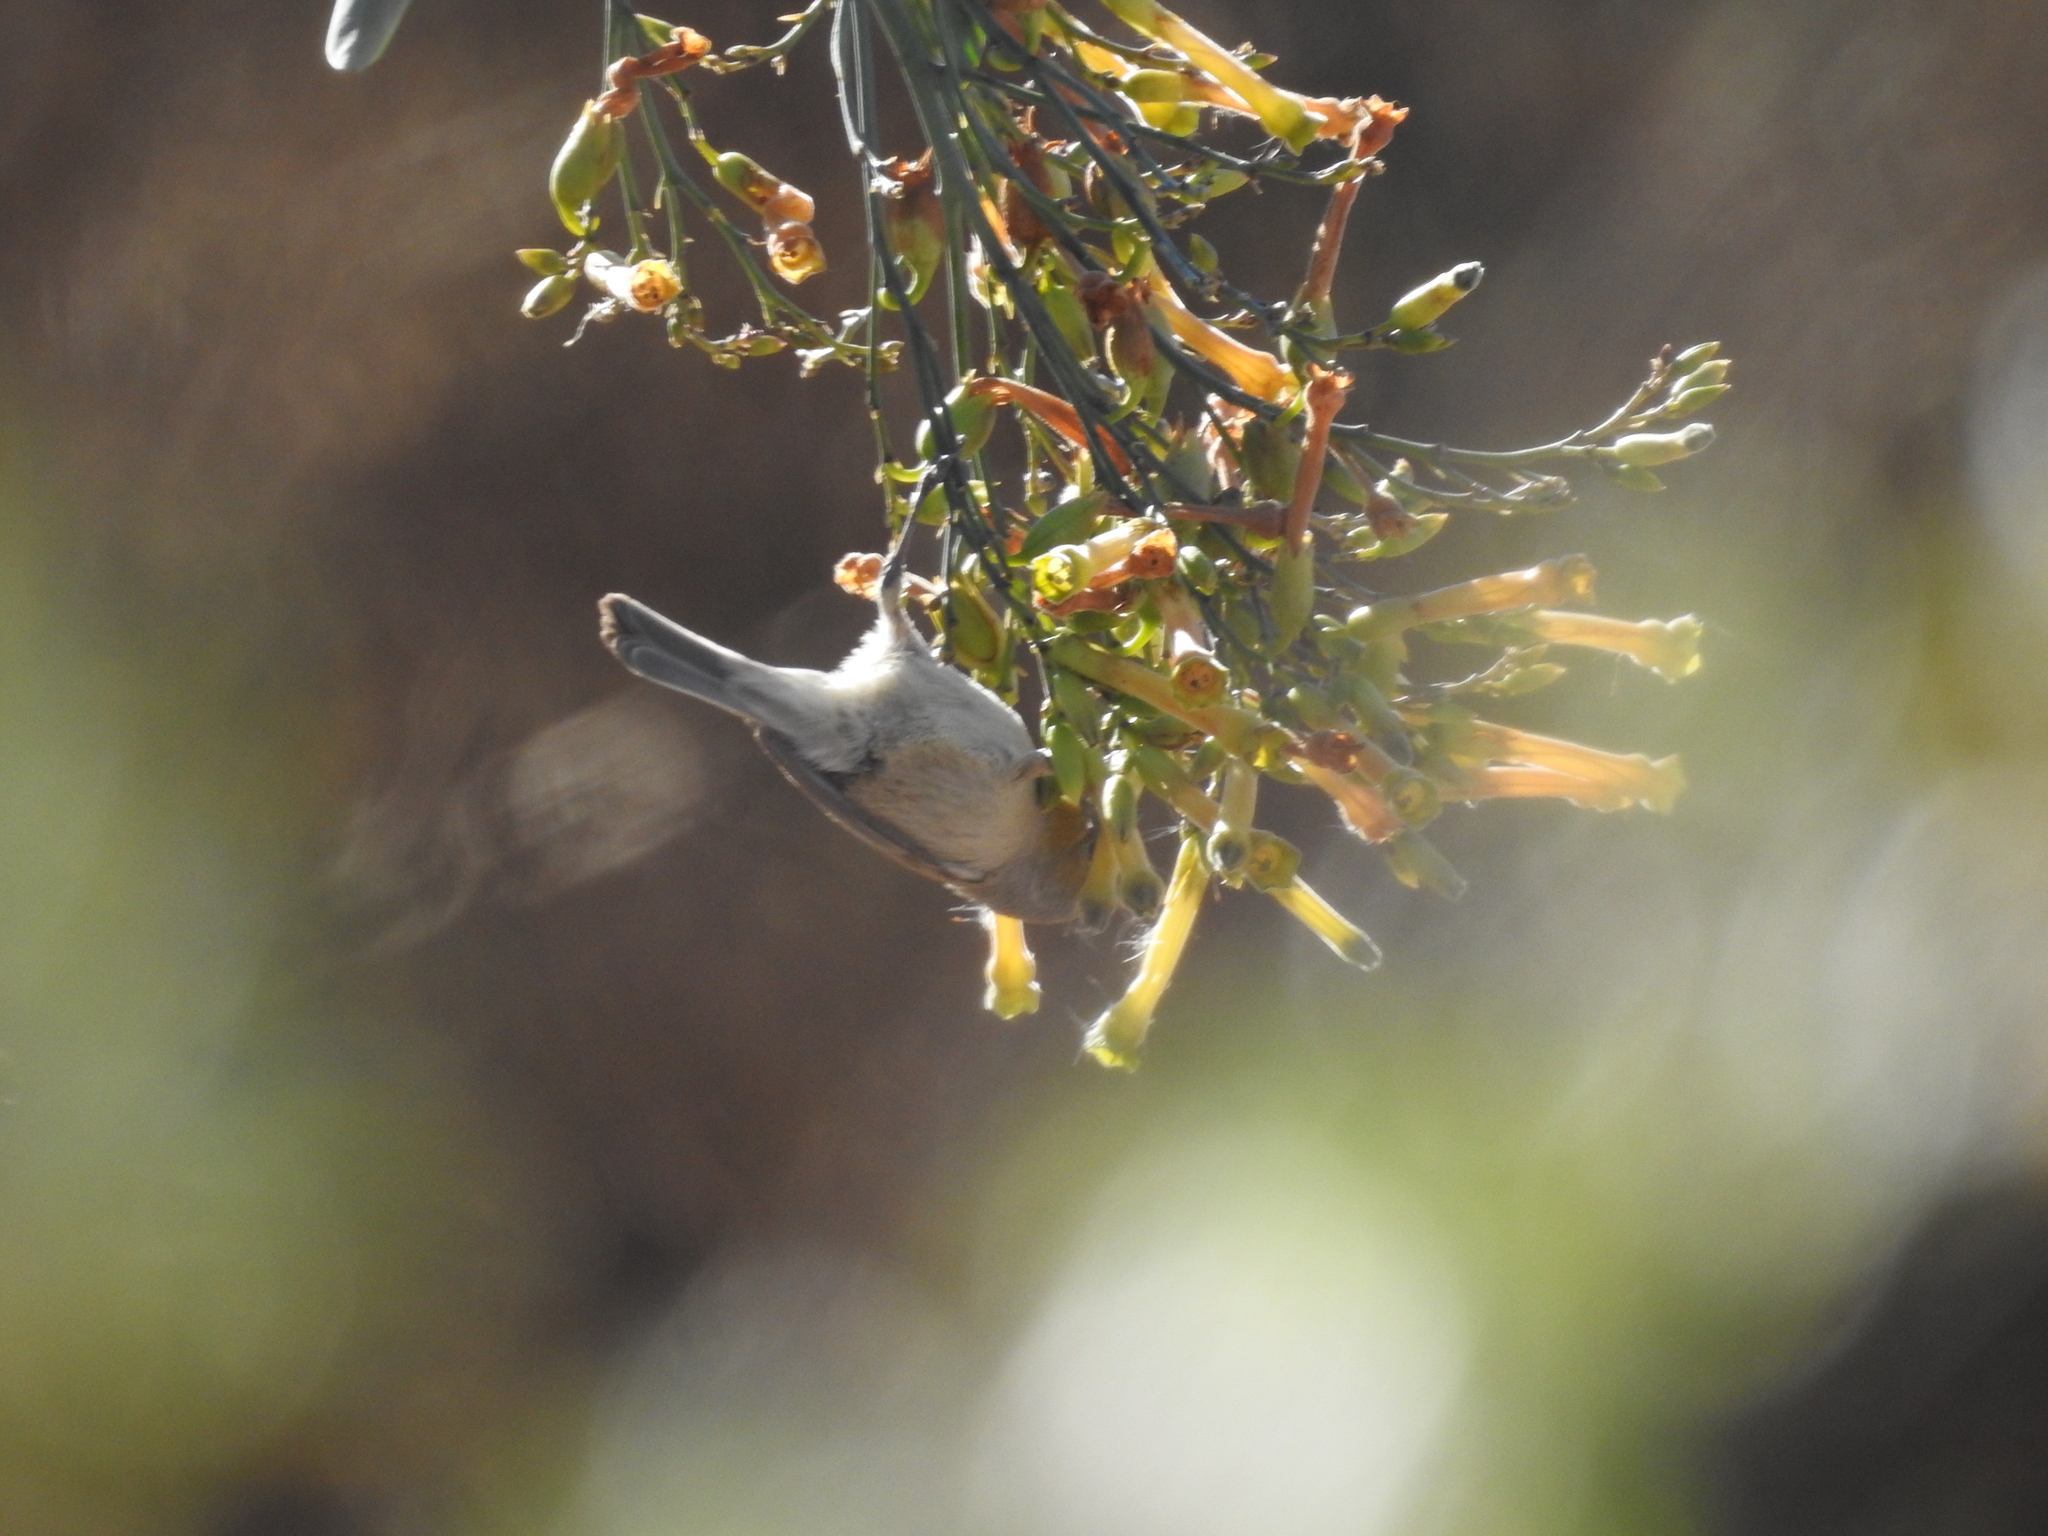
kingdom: Animalia
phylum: Chordata
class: Aves
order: Passeriformes
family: Remizidae
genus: Auriparus
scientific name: Auriparus flaviceps
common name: Verdin
